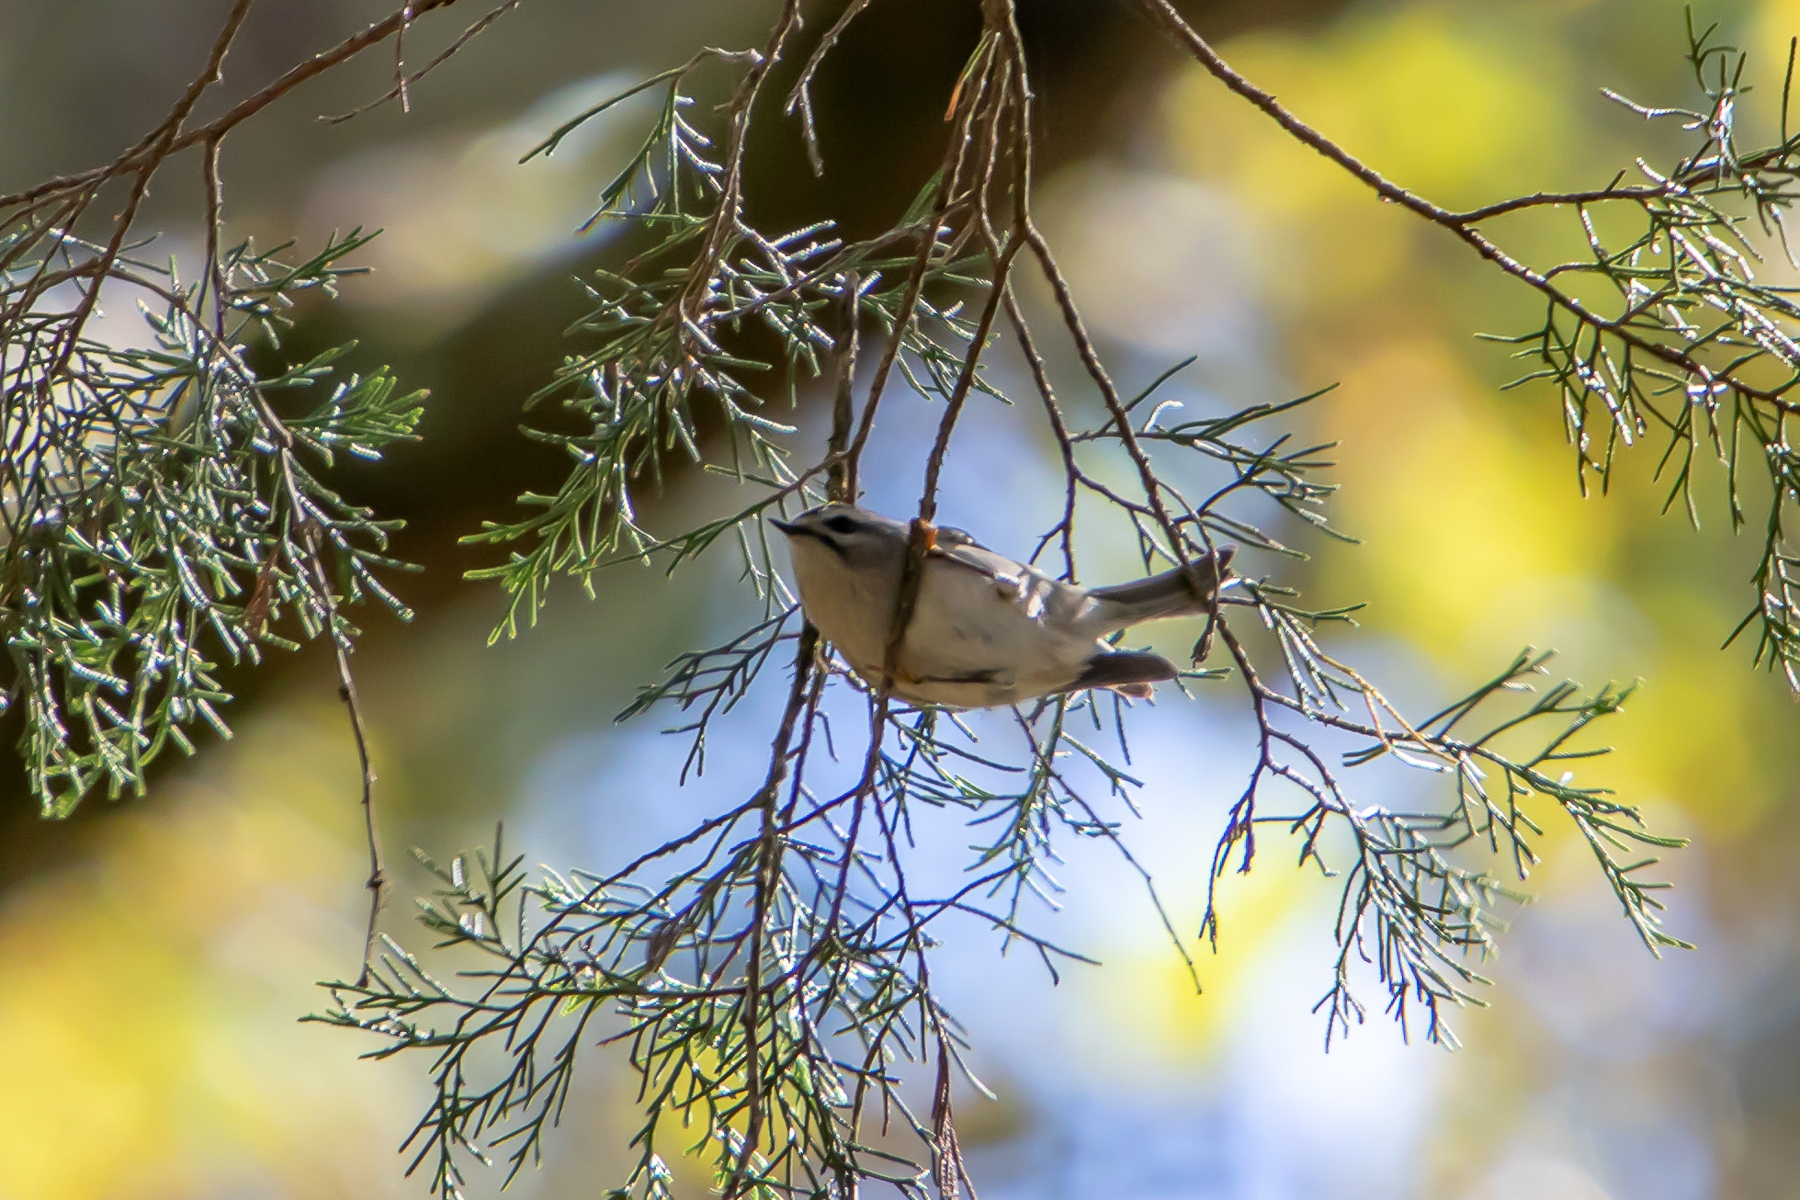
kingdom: Animalia
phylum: Chordata
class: Aves
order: Passeriformes
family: Regulidae
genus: Regulus
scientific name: Regulus satrapa
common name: Golden-crowned kinglet
